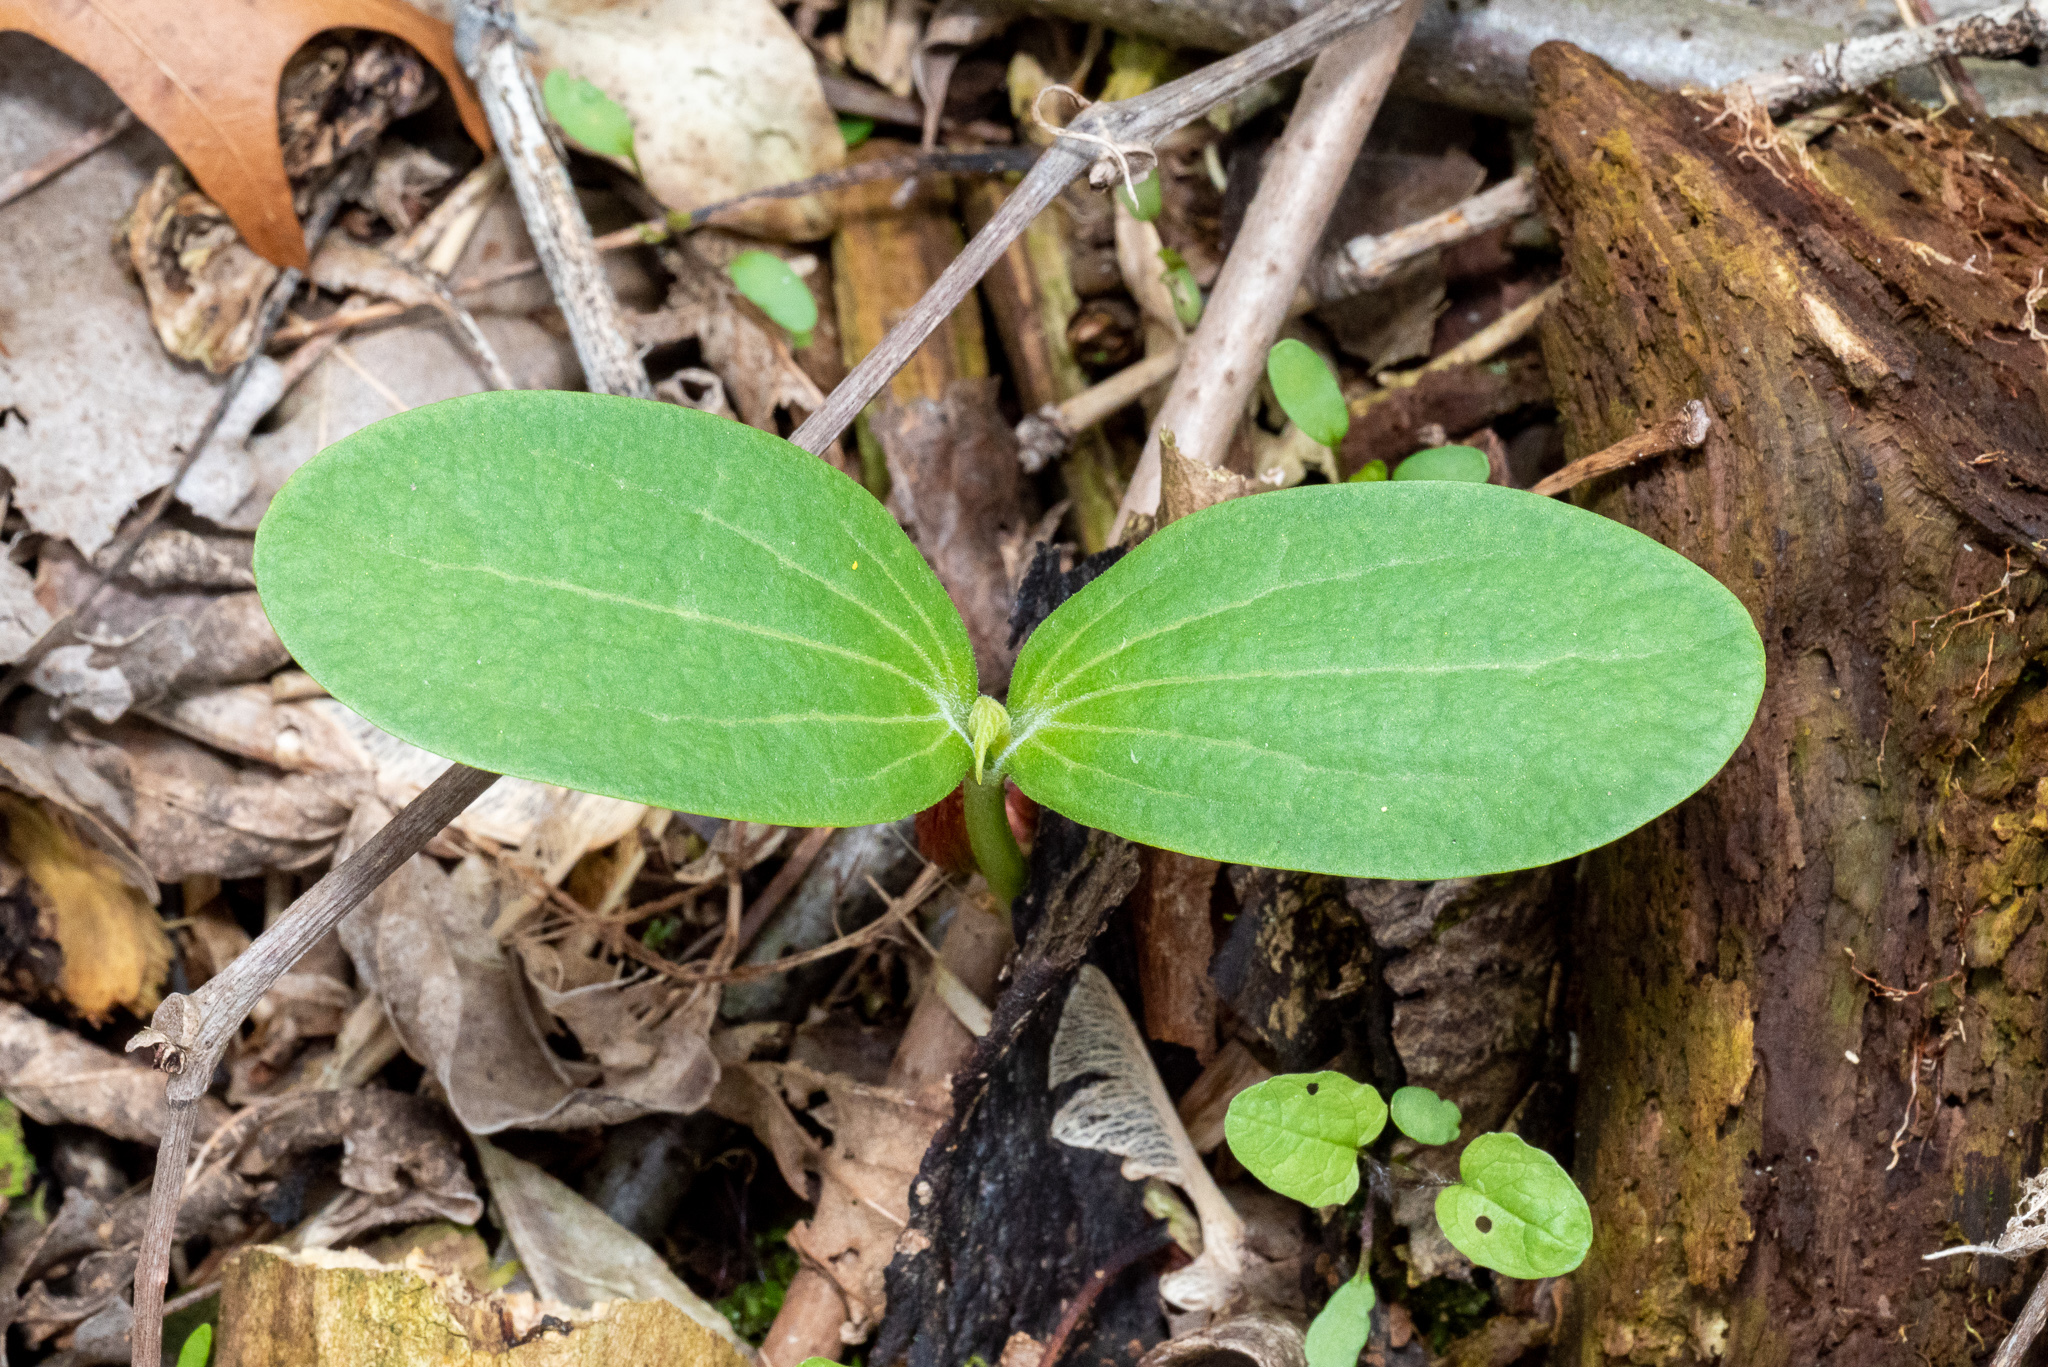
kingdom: Plantae
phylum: Tracheophyta
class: Magnoliopsida
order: Cucurbitales
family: Cucurbitaceae
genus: Echinocystis
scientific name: Echinocystis lobata
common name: Wild cucumber
